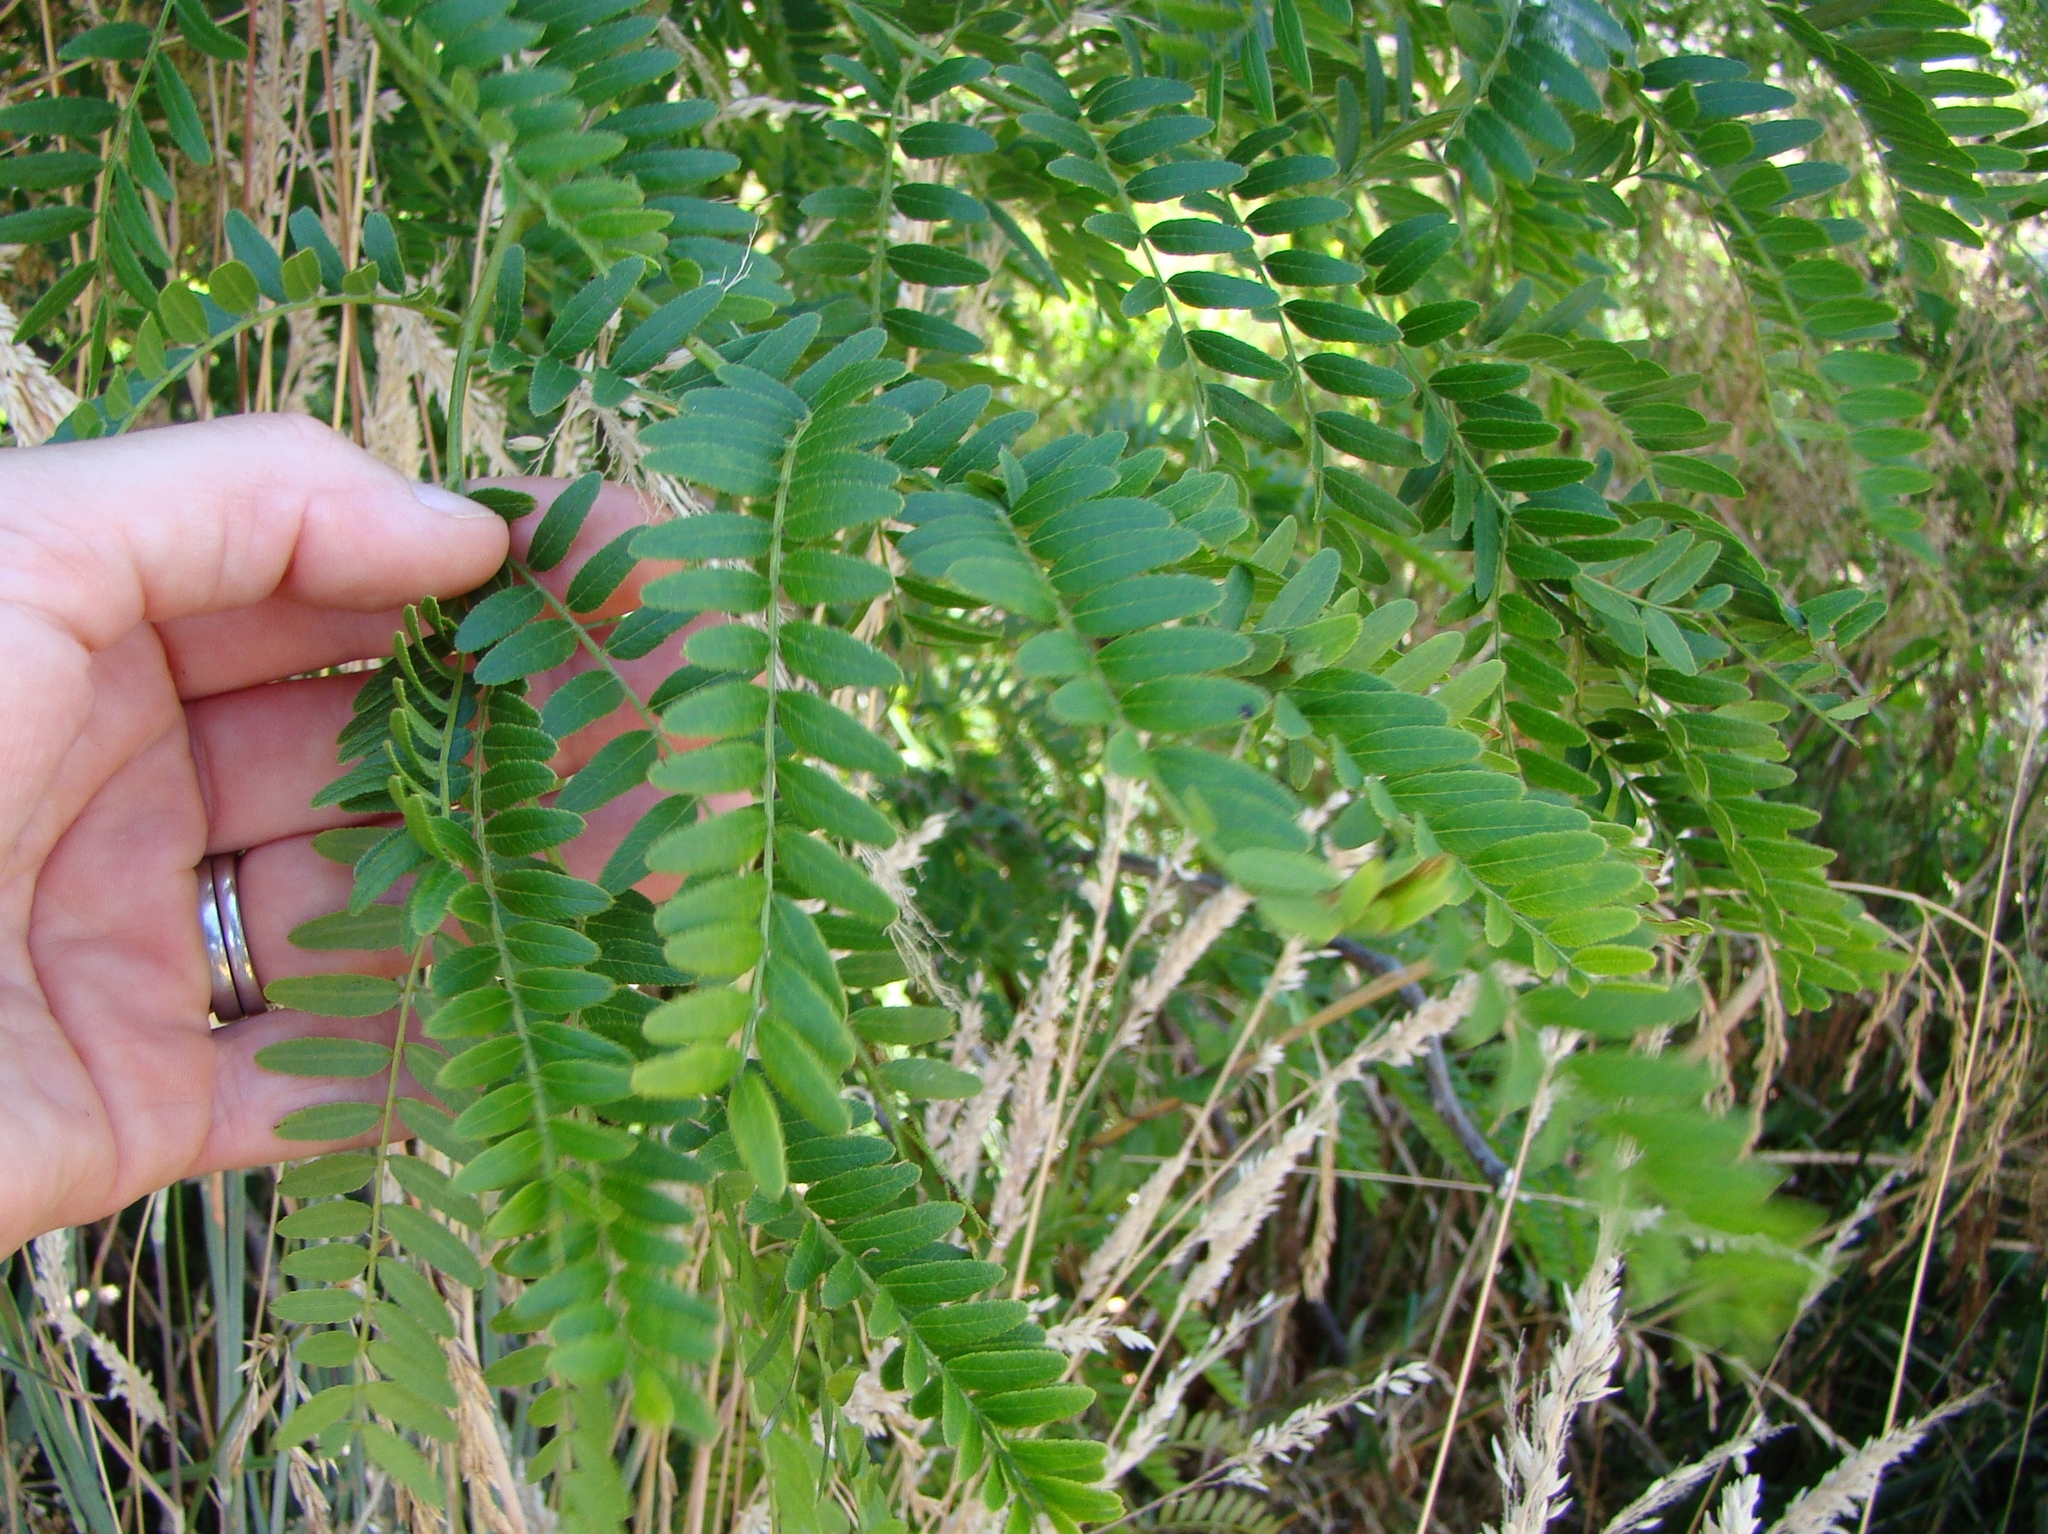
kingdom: Plantae
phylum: Tracheophyta
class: Magnoliopsida
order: Fabales
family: Fabaceae
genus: Gleditsia
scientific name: Gleditsia triacanthos
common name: Common honeylocust
